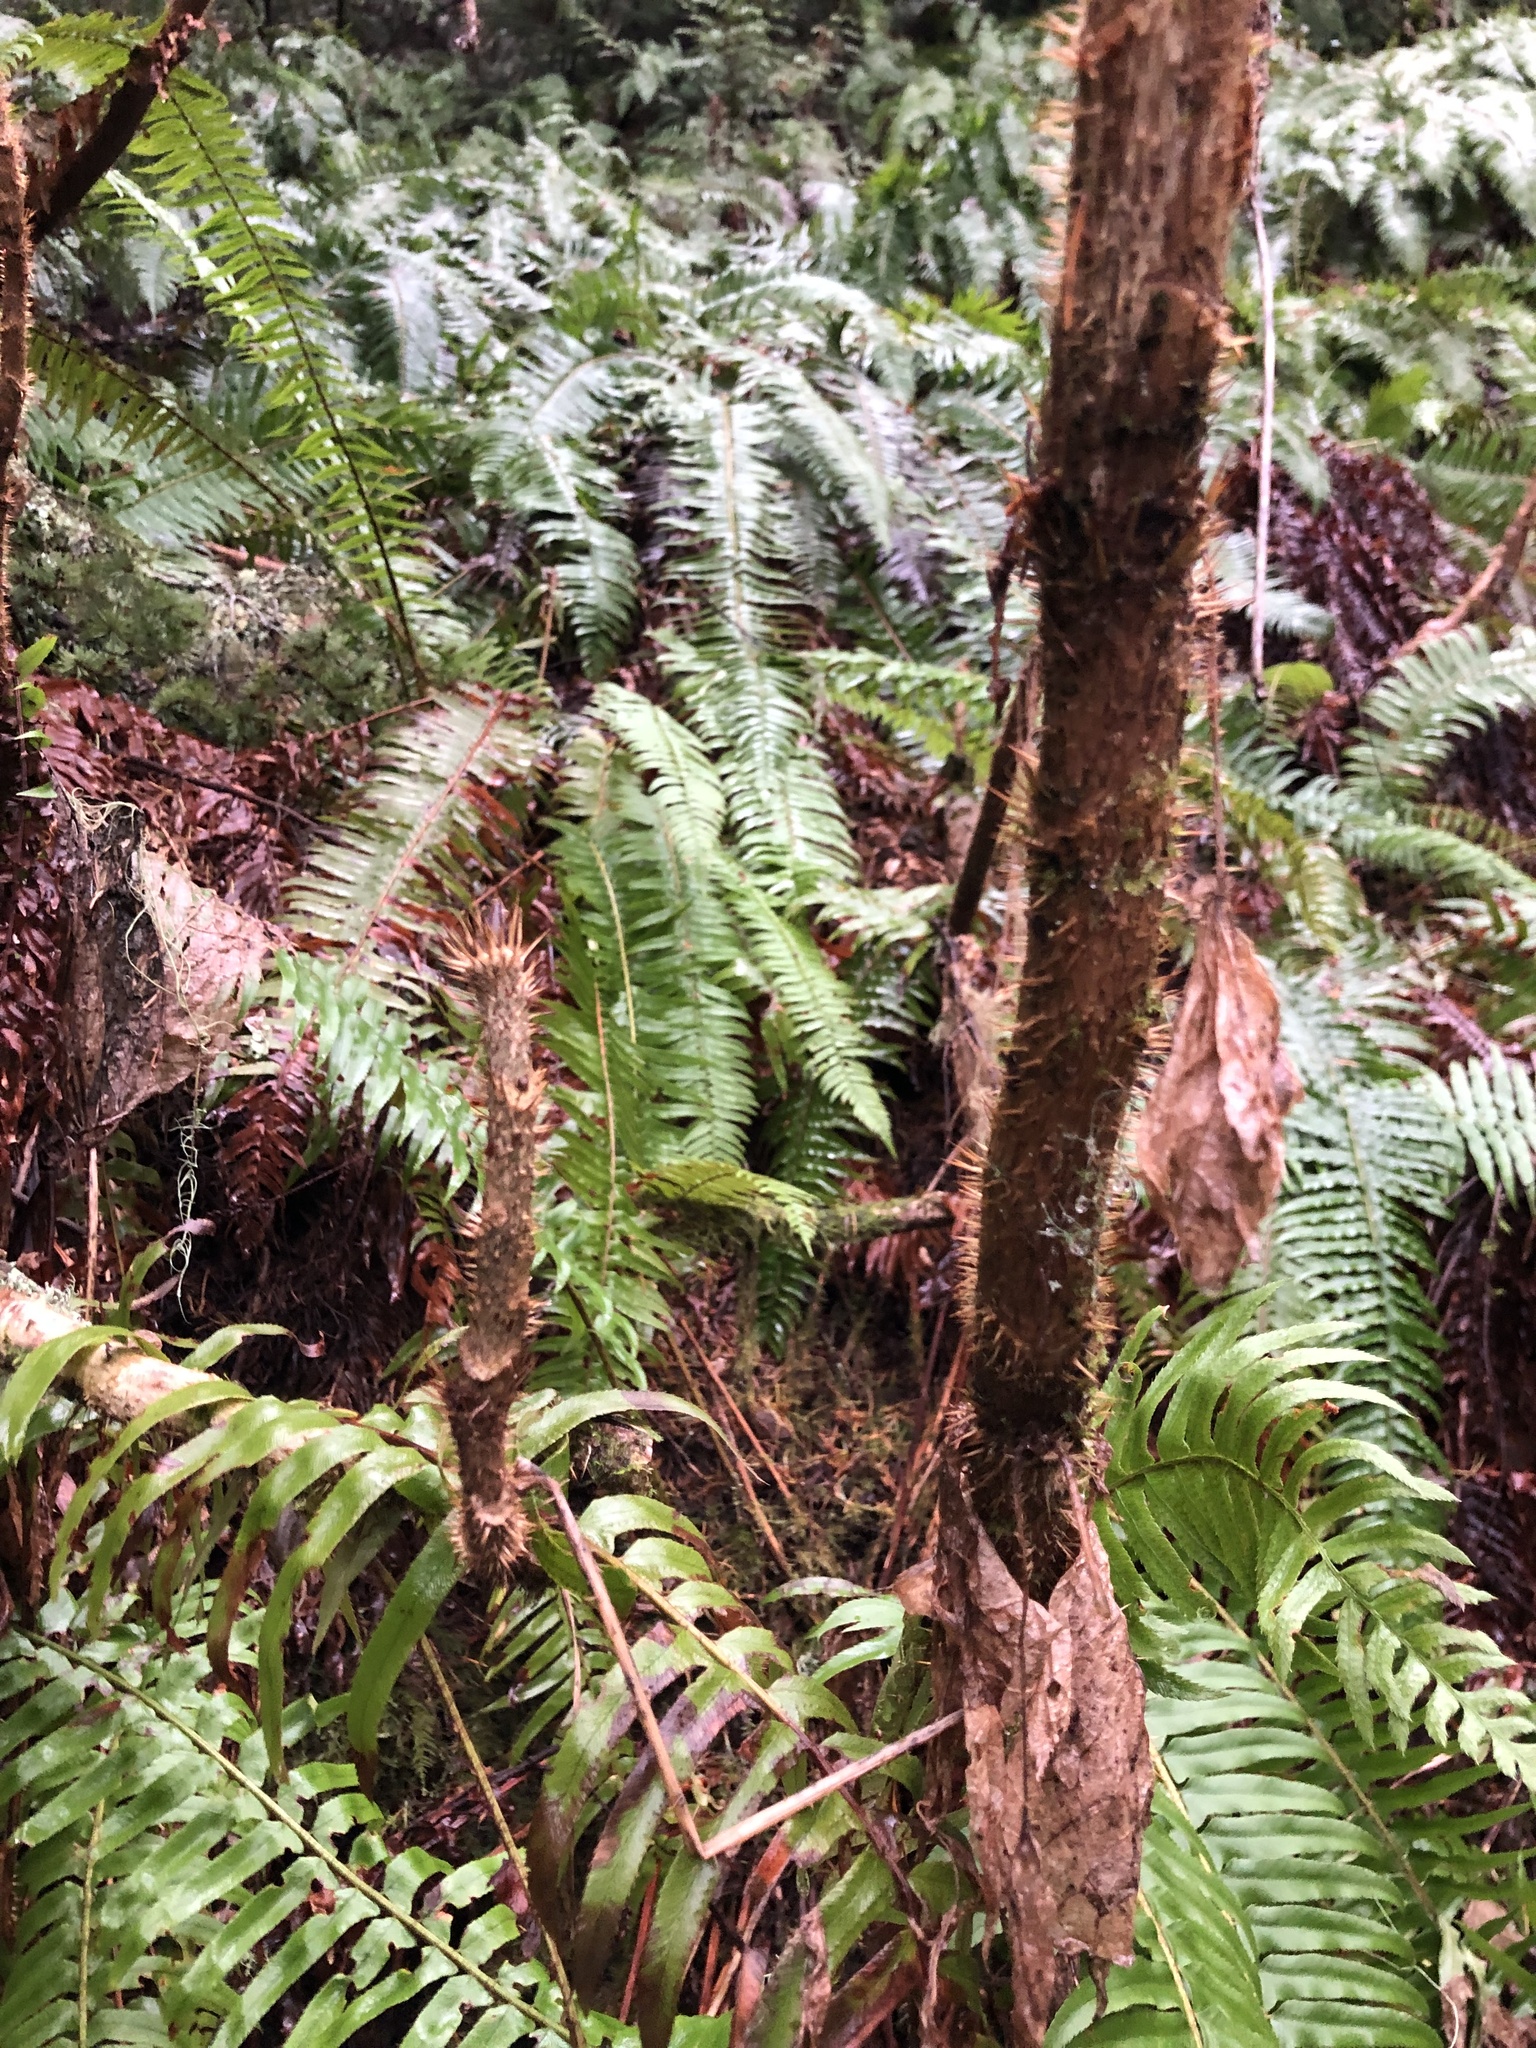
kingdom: Plantae
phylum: Tracheophyta
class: Magnoliopsida
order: Apiales
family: Araliaceae
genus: Oplopanax
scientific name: Oplopanax horridus
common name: Devil's walking-stick
